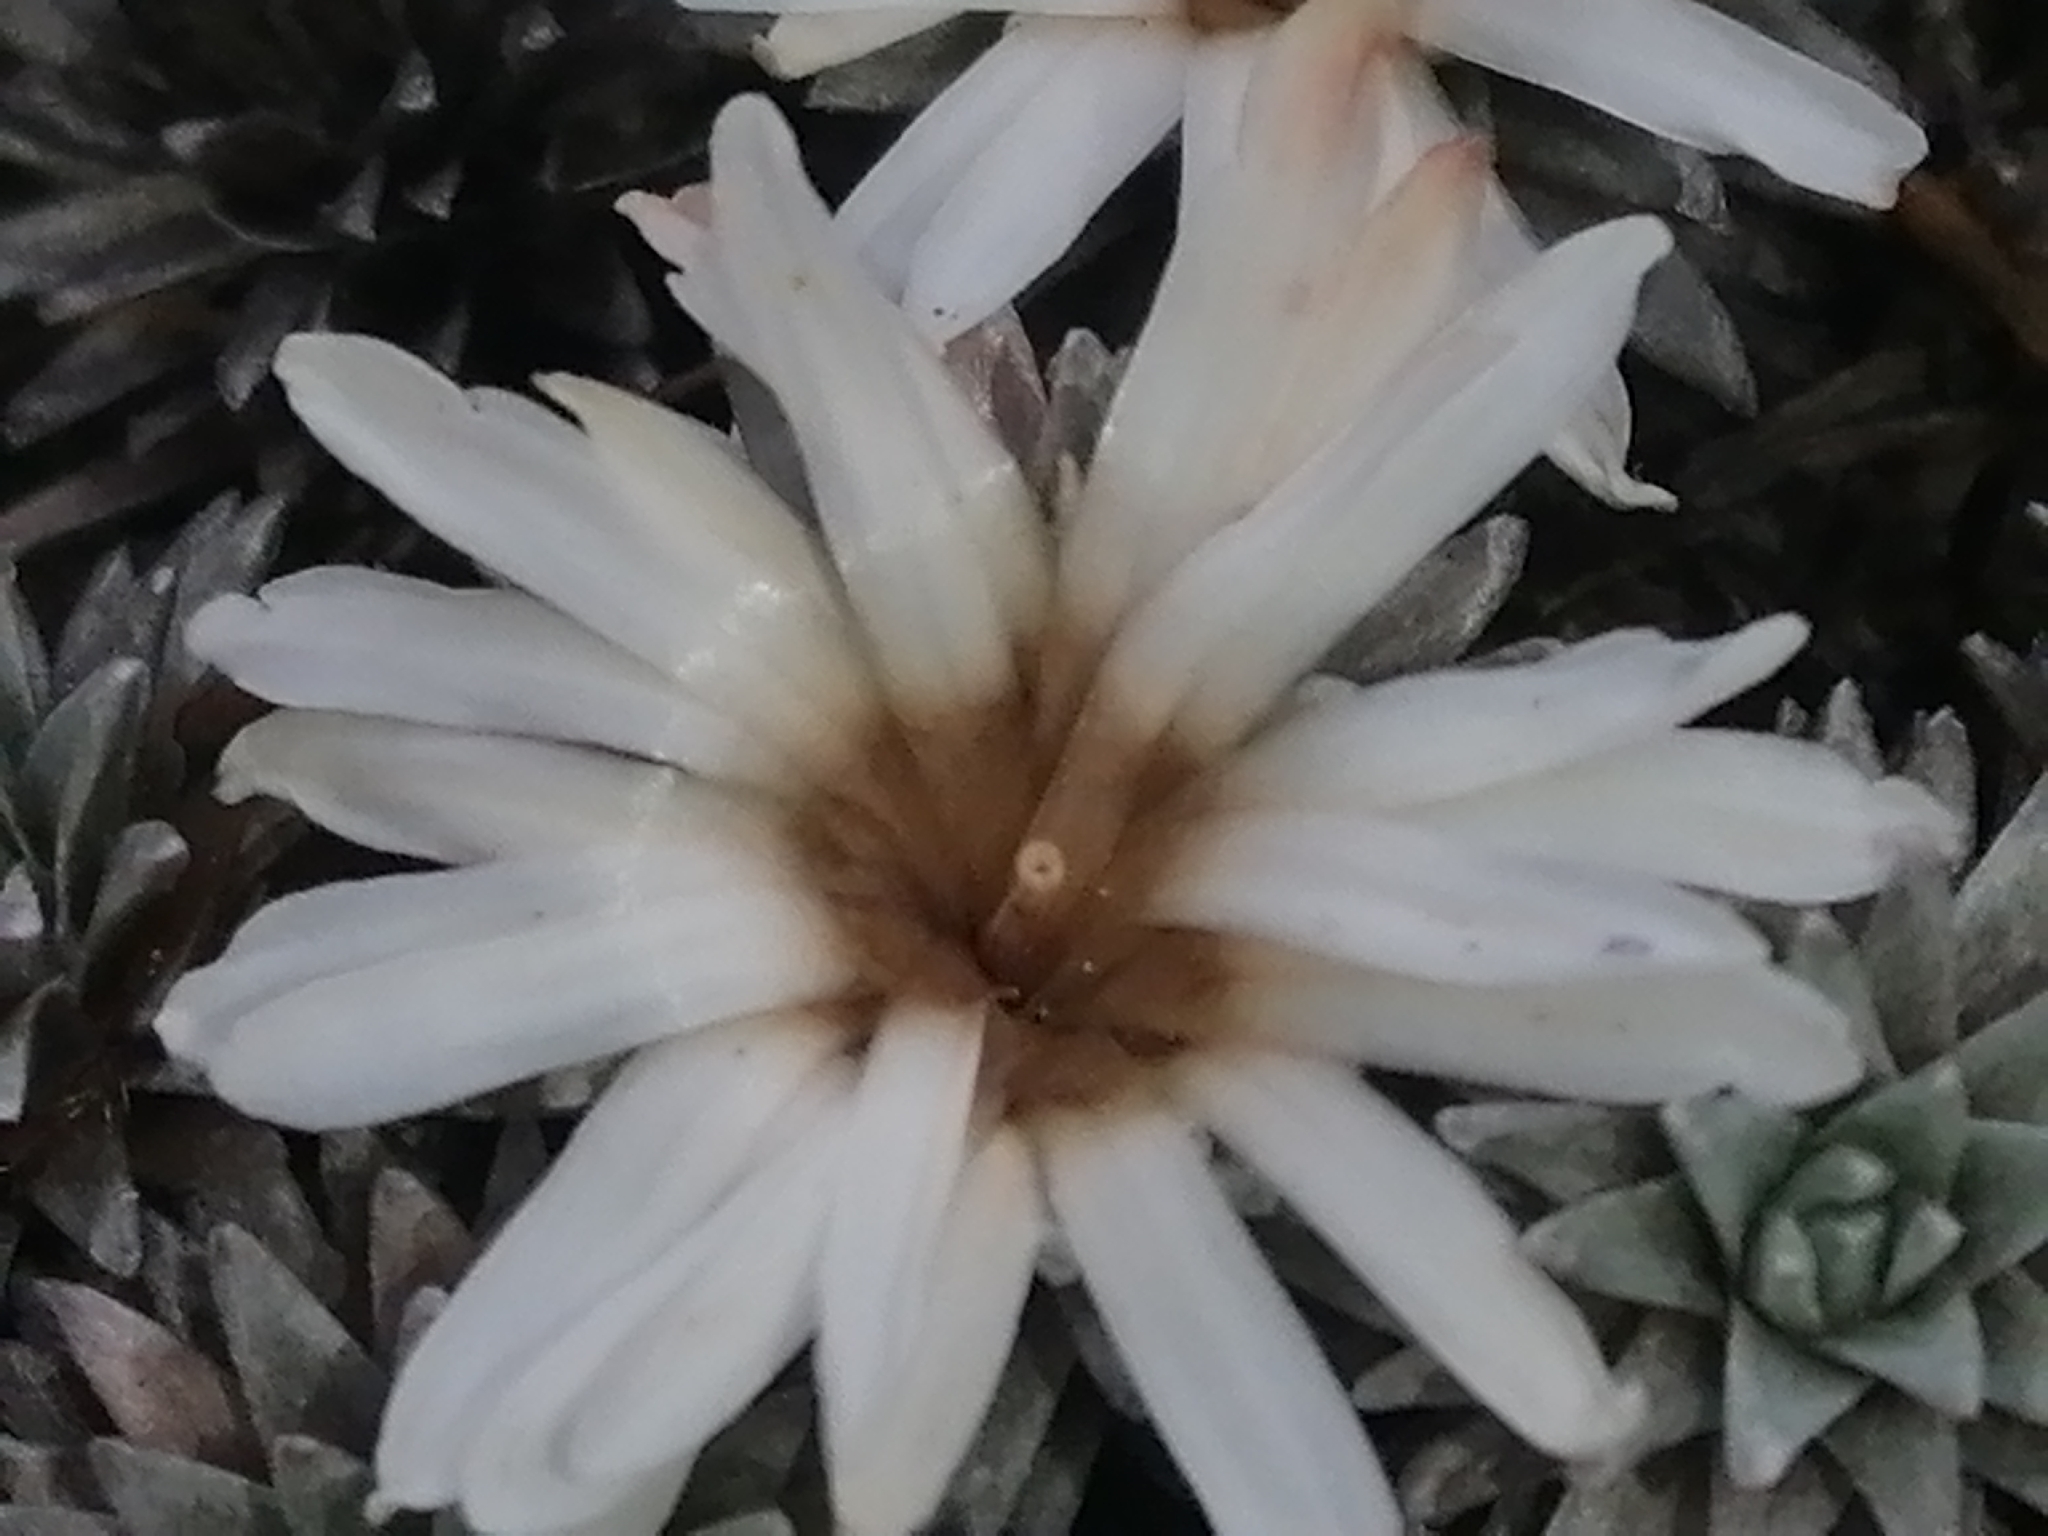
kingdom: Plantae
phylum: Tracheophyta
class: Magnoliopsida
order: Asterales
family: Asteraceae
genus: Raoulia
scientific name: Raoulia grandiflora
